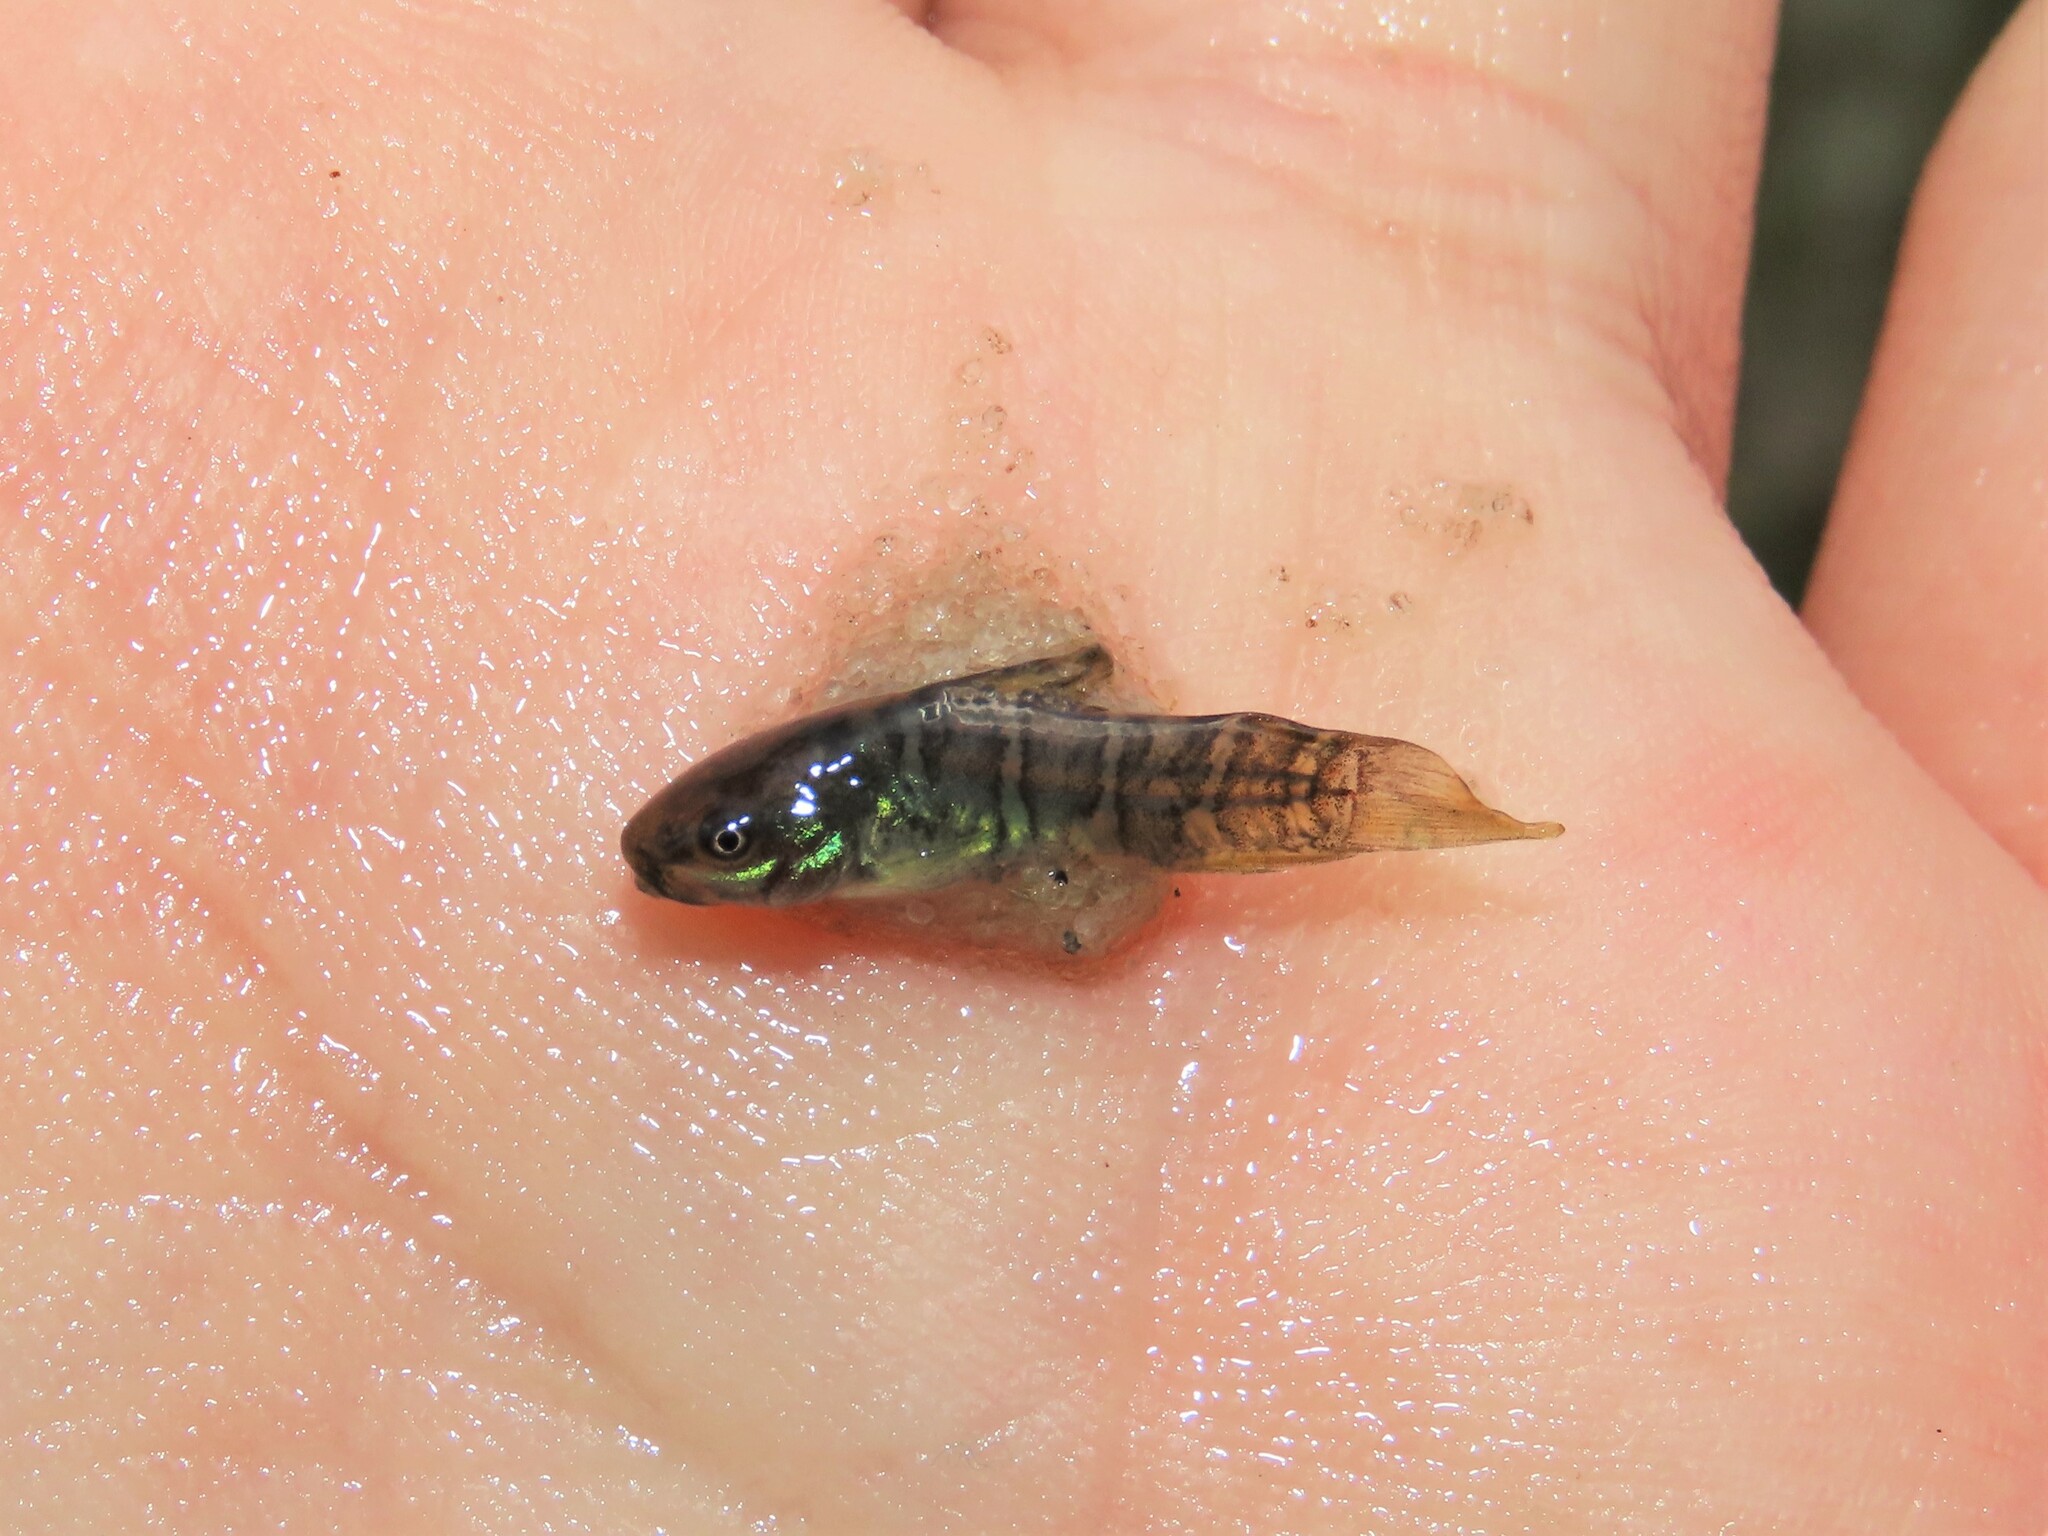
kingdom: Animalia
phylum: Chordata
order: Siluriformes
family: Callichthyidae
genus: Hoplosternum
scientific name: Hoplosternum littorale
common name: Brown hoplo
